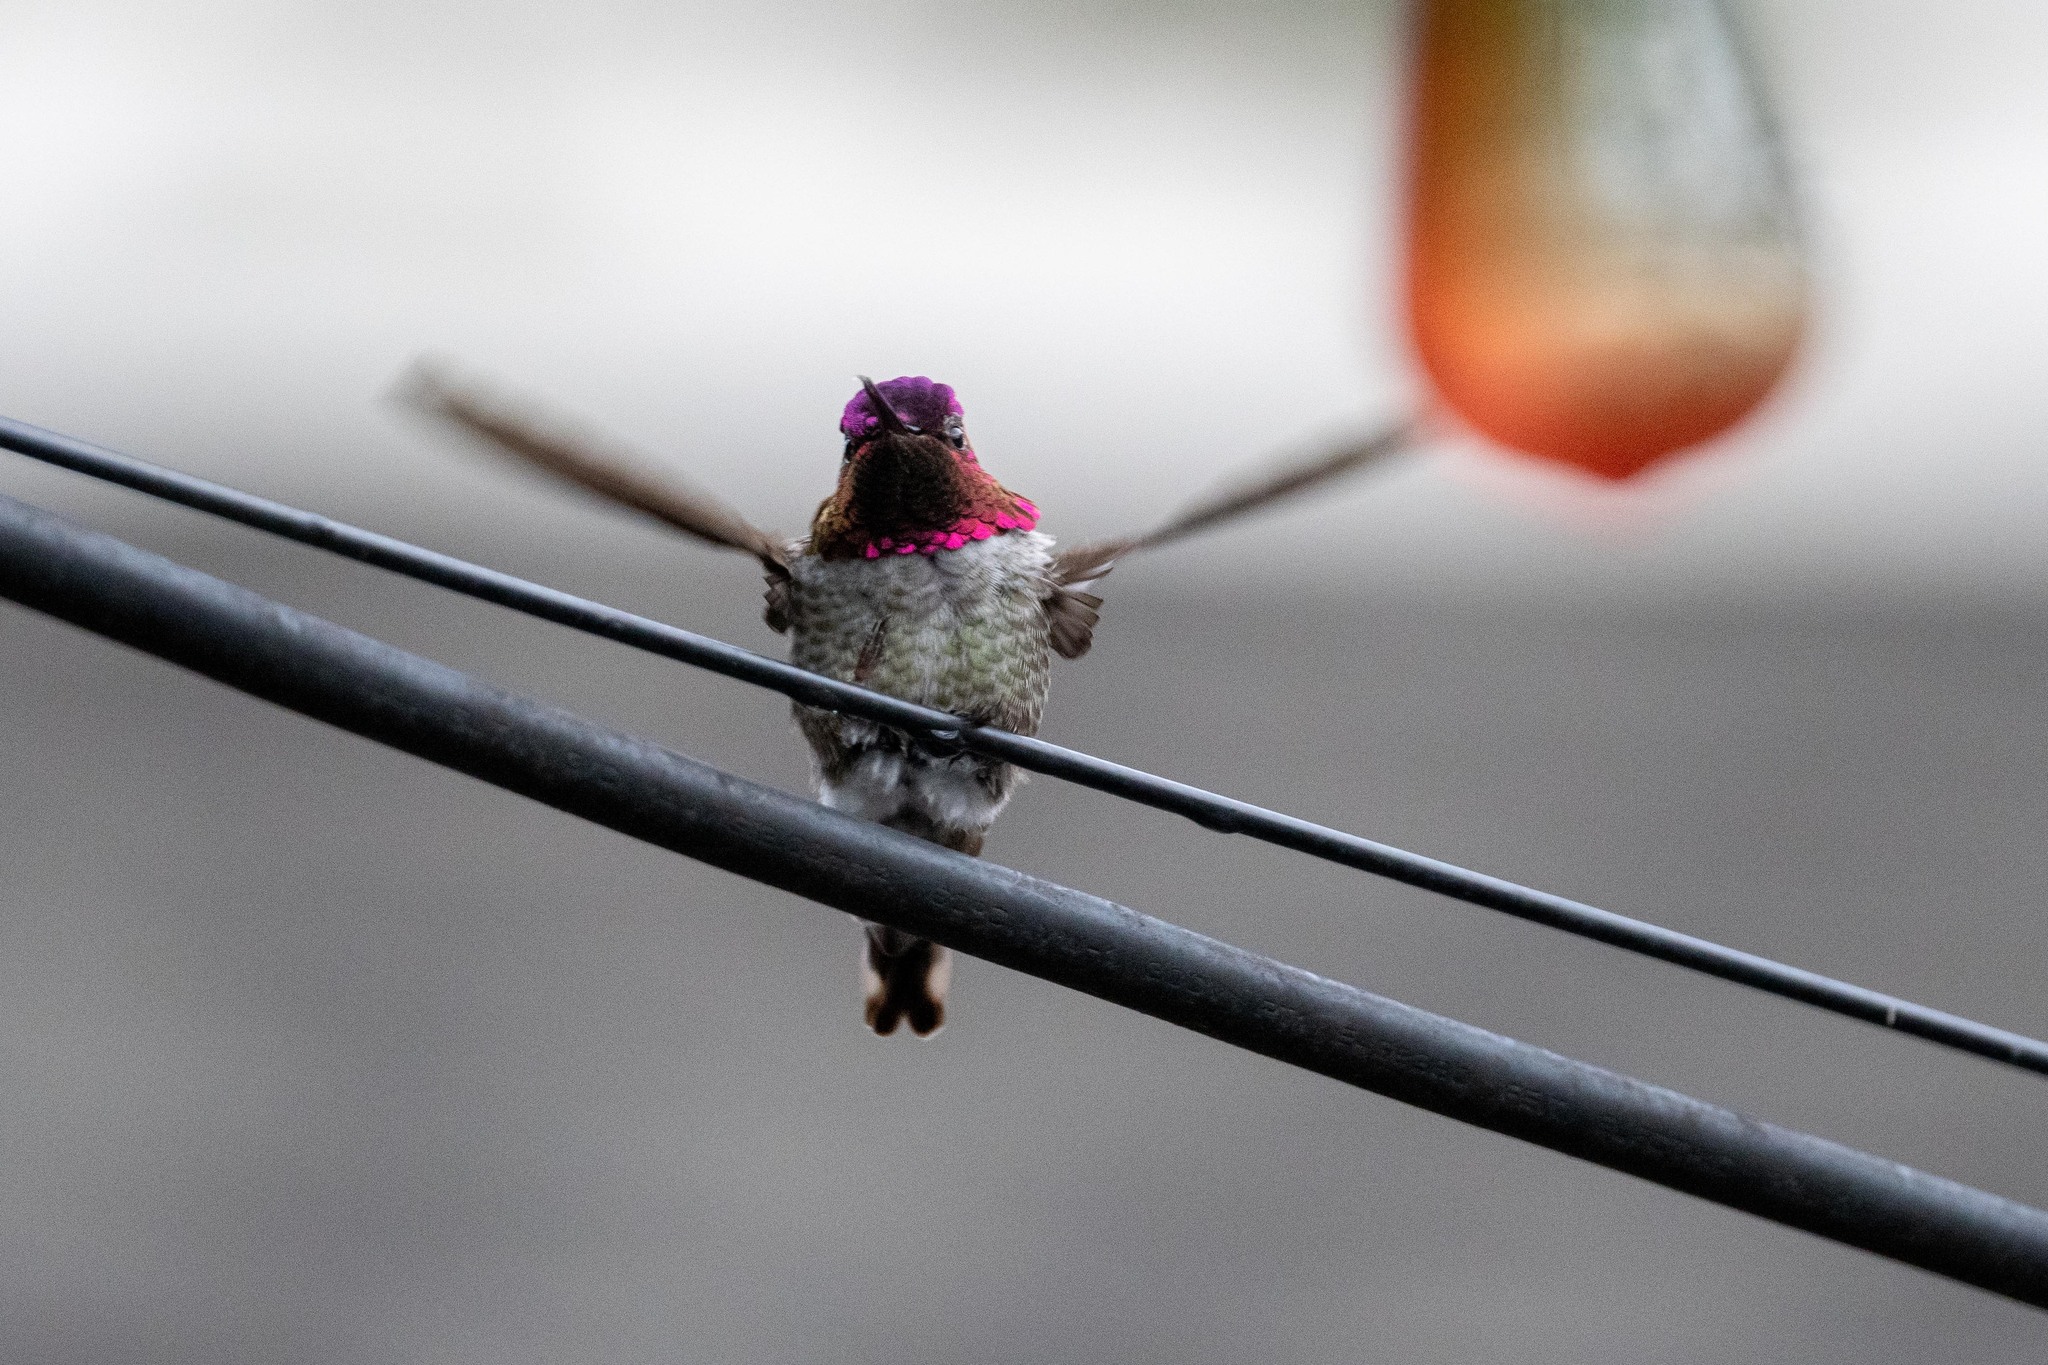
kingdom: Animalia
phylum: Chordata
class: Aves
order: Apodiformes
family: Trochilidae
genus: Calypte
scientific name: Calypte anna
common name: Anna's hummingbird
